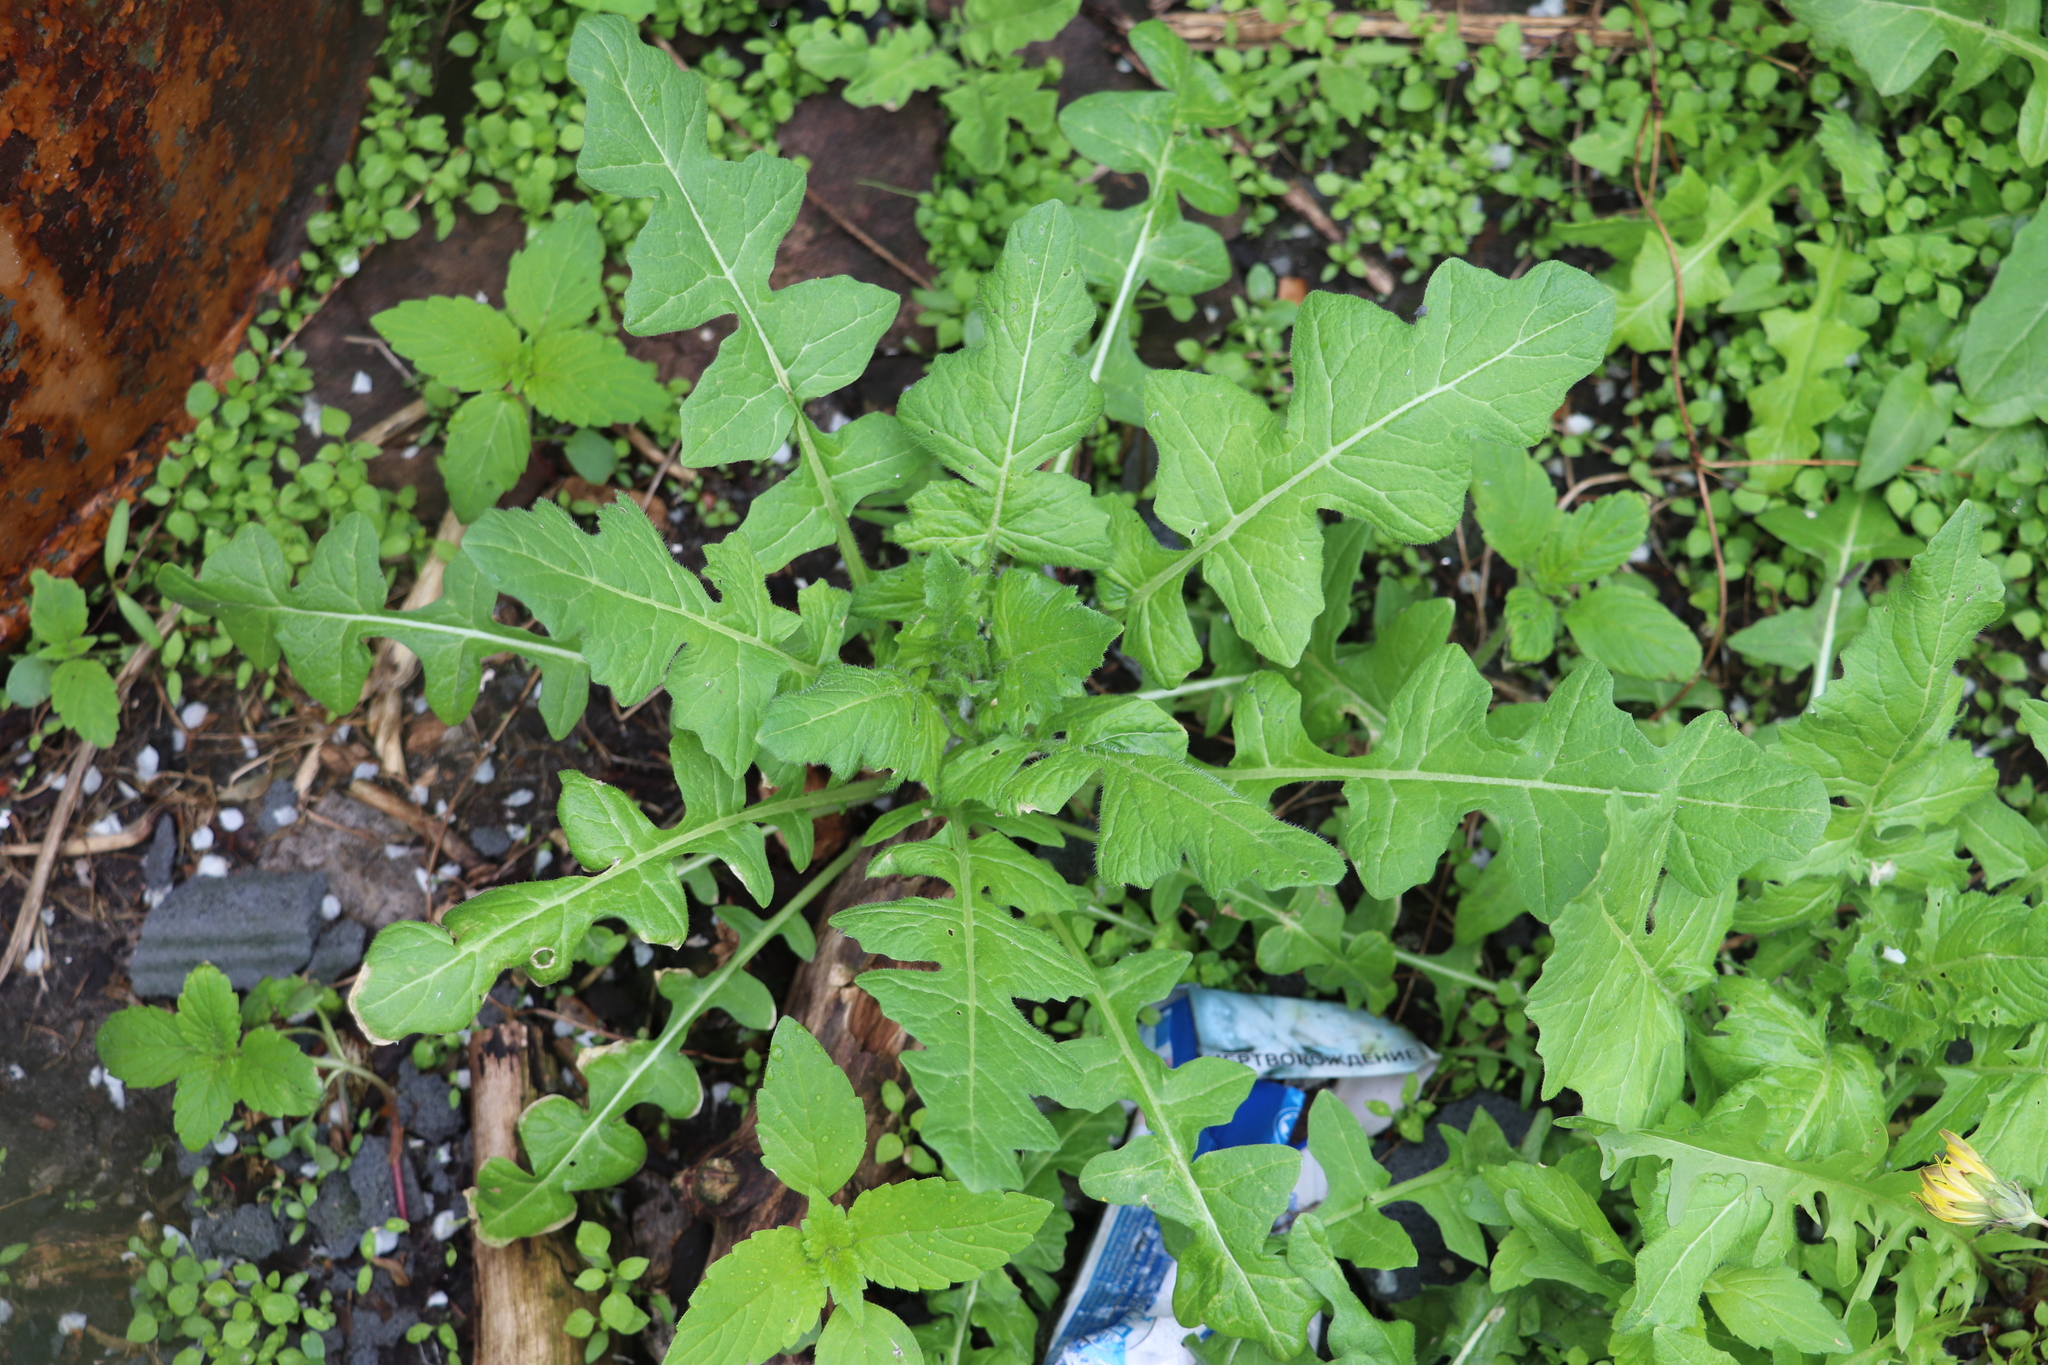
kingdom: Plantae
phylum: Tracheophyta
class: Magnoliopsida
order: Brassicales
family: Brassicaceae
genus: Sisymbrium
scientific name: Sisymbrium loeselii
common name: False london-rocket
